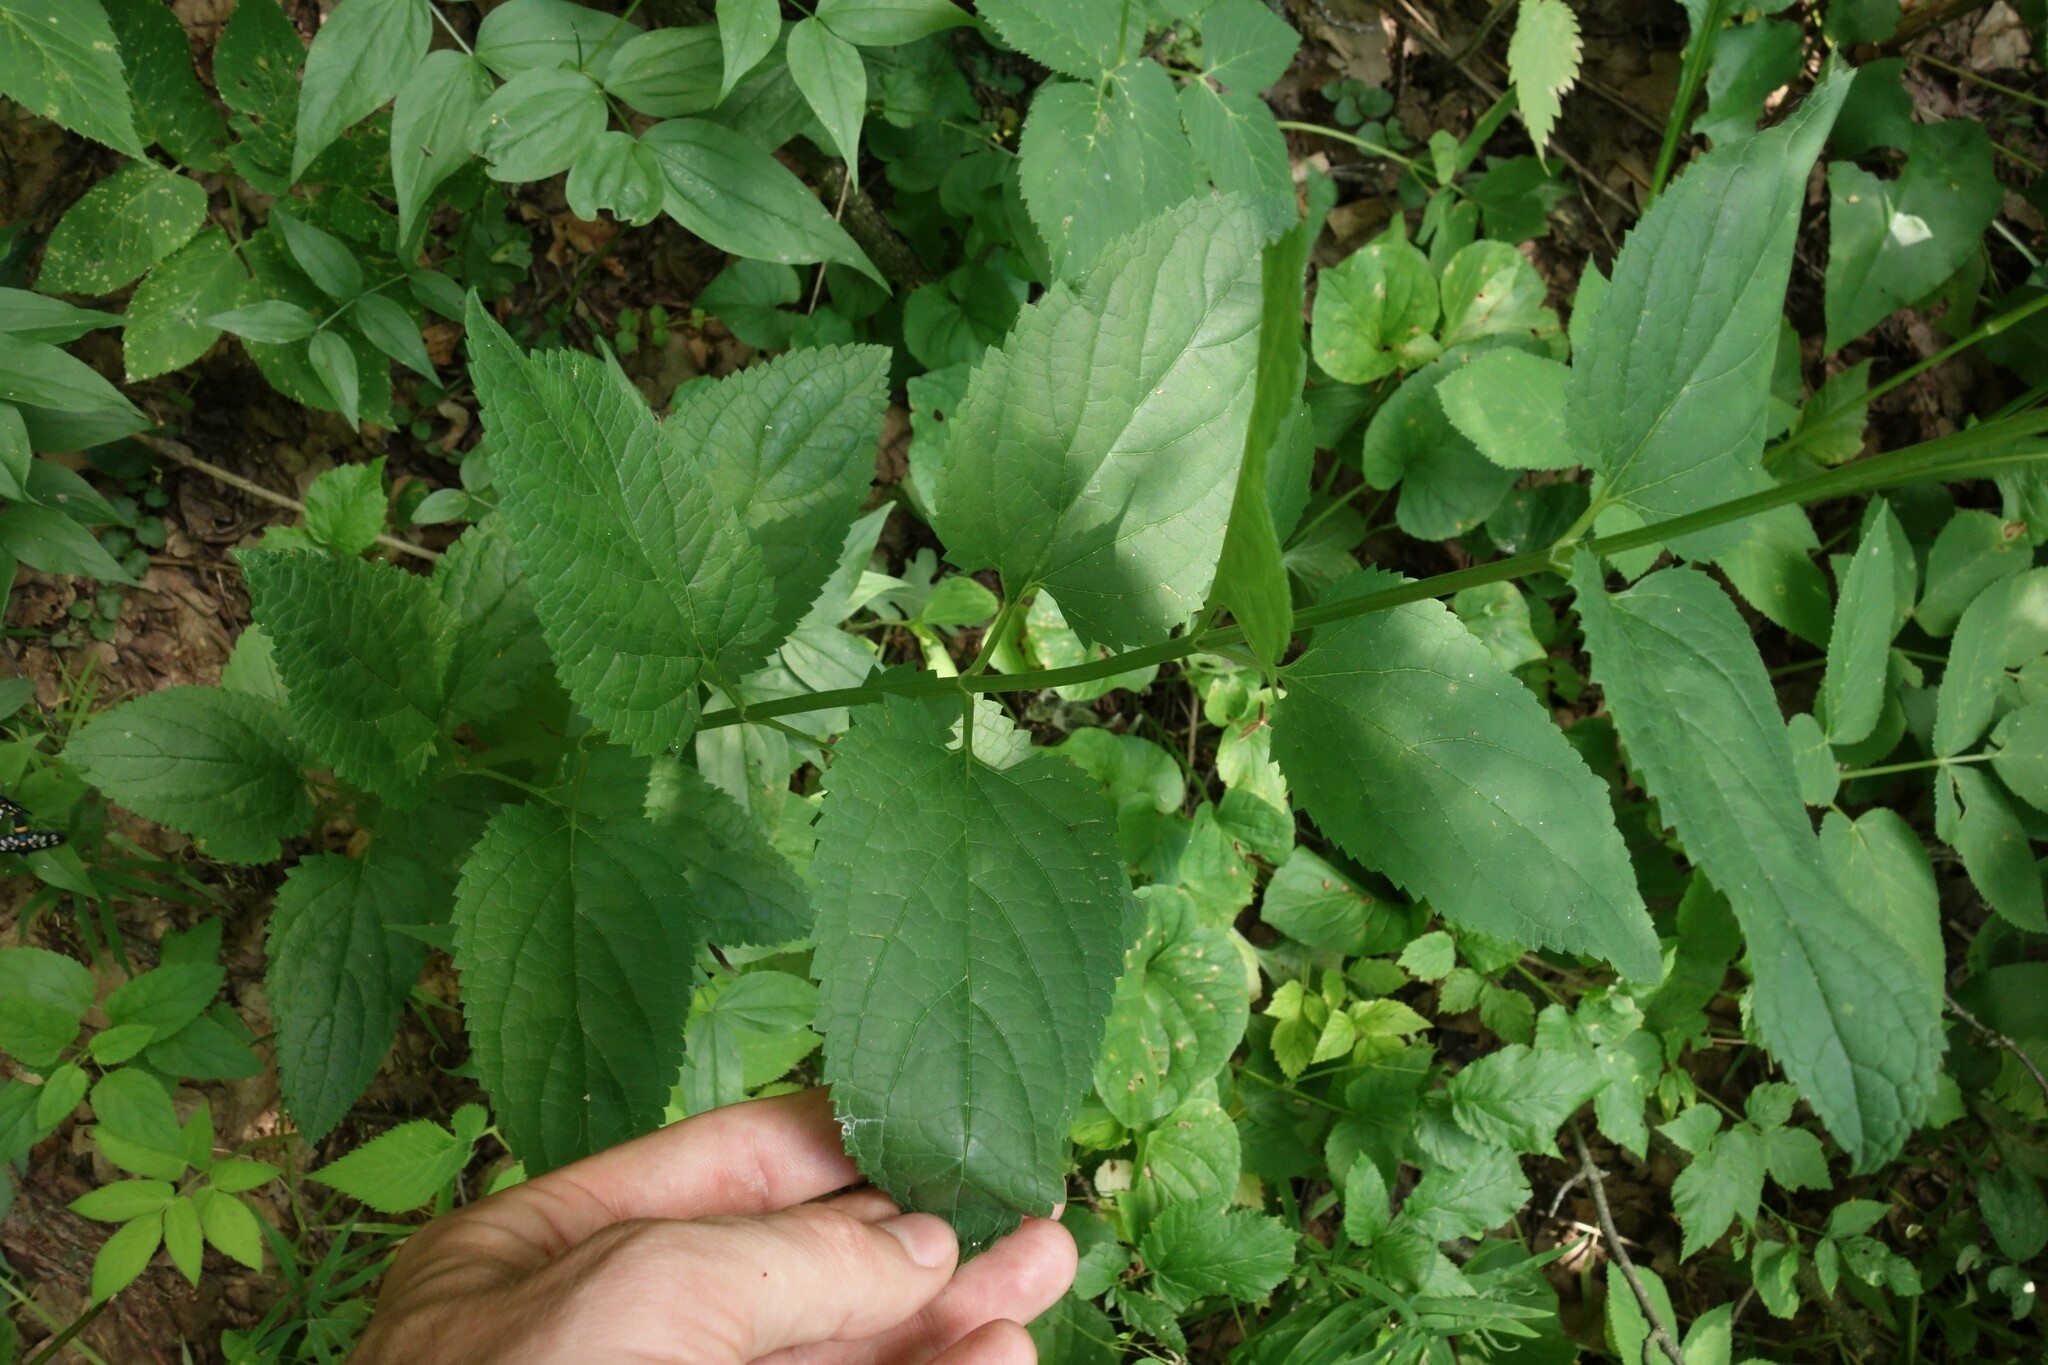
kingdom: Plantae
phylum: Tracheophyta
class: Magnoliopsida
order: Lamiales
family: Scrophulariaceae
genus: Scrophularia
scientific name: Scrophularia nodosa
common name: Common figwort
